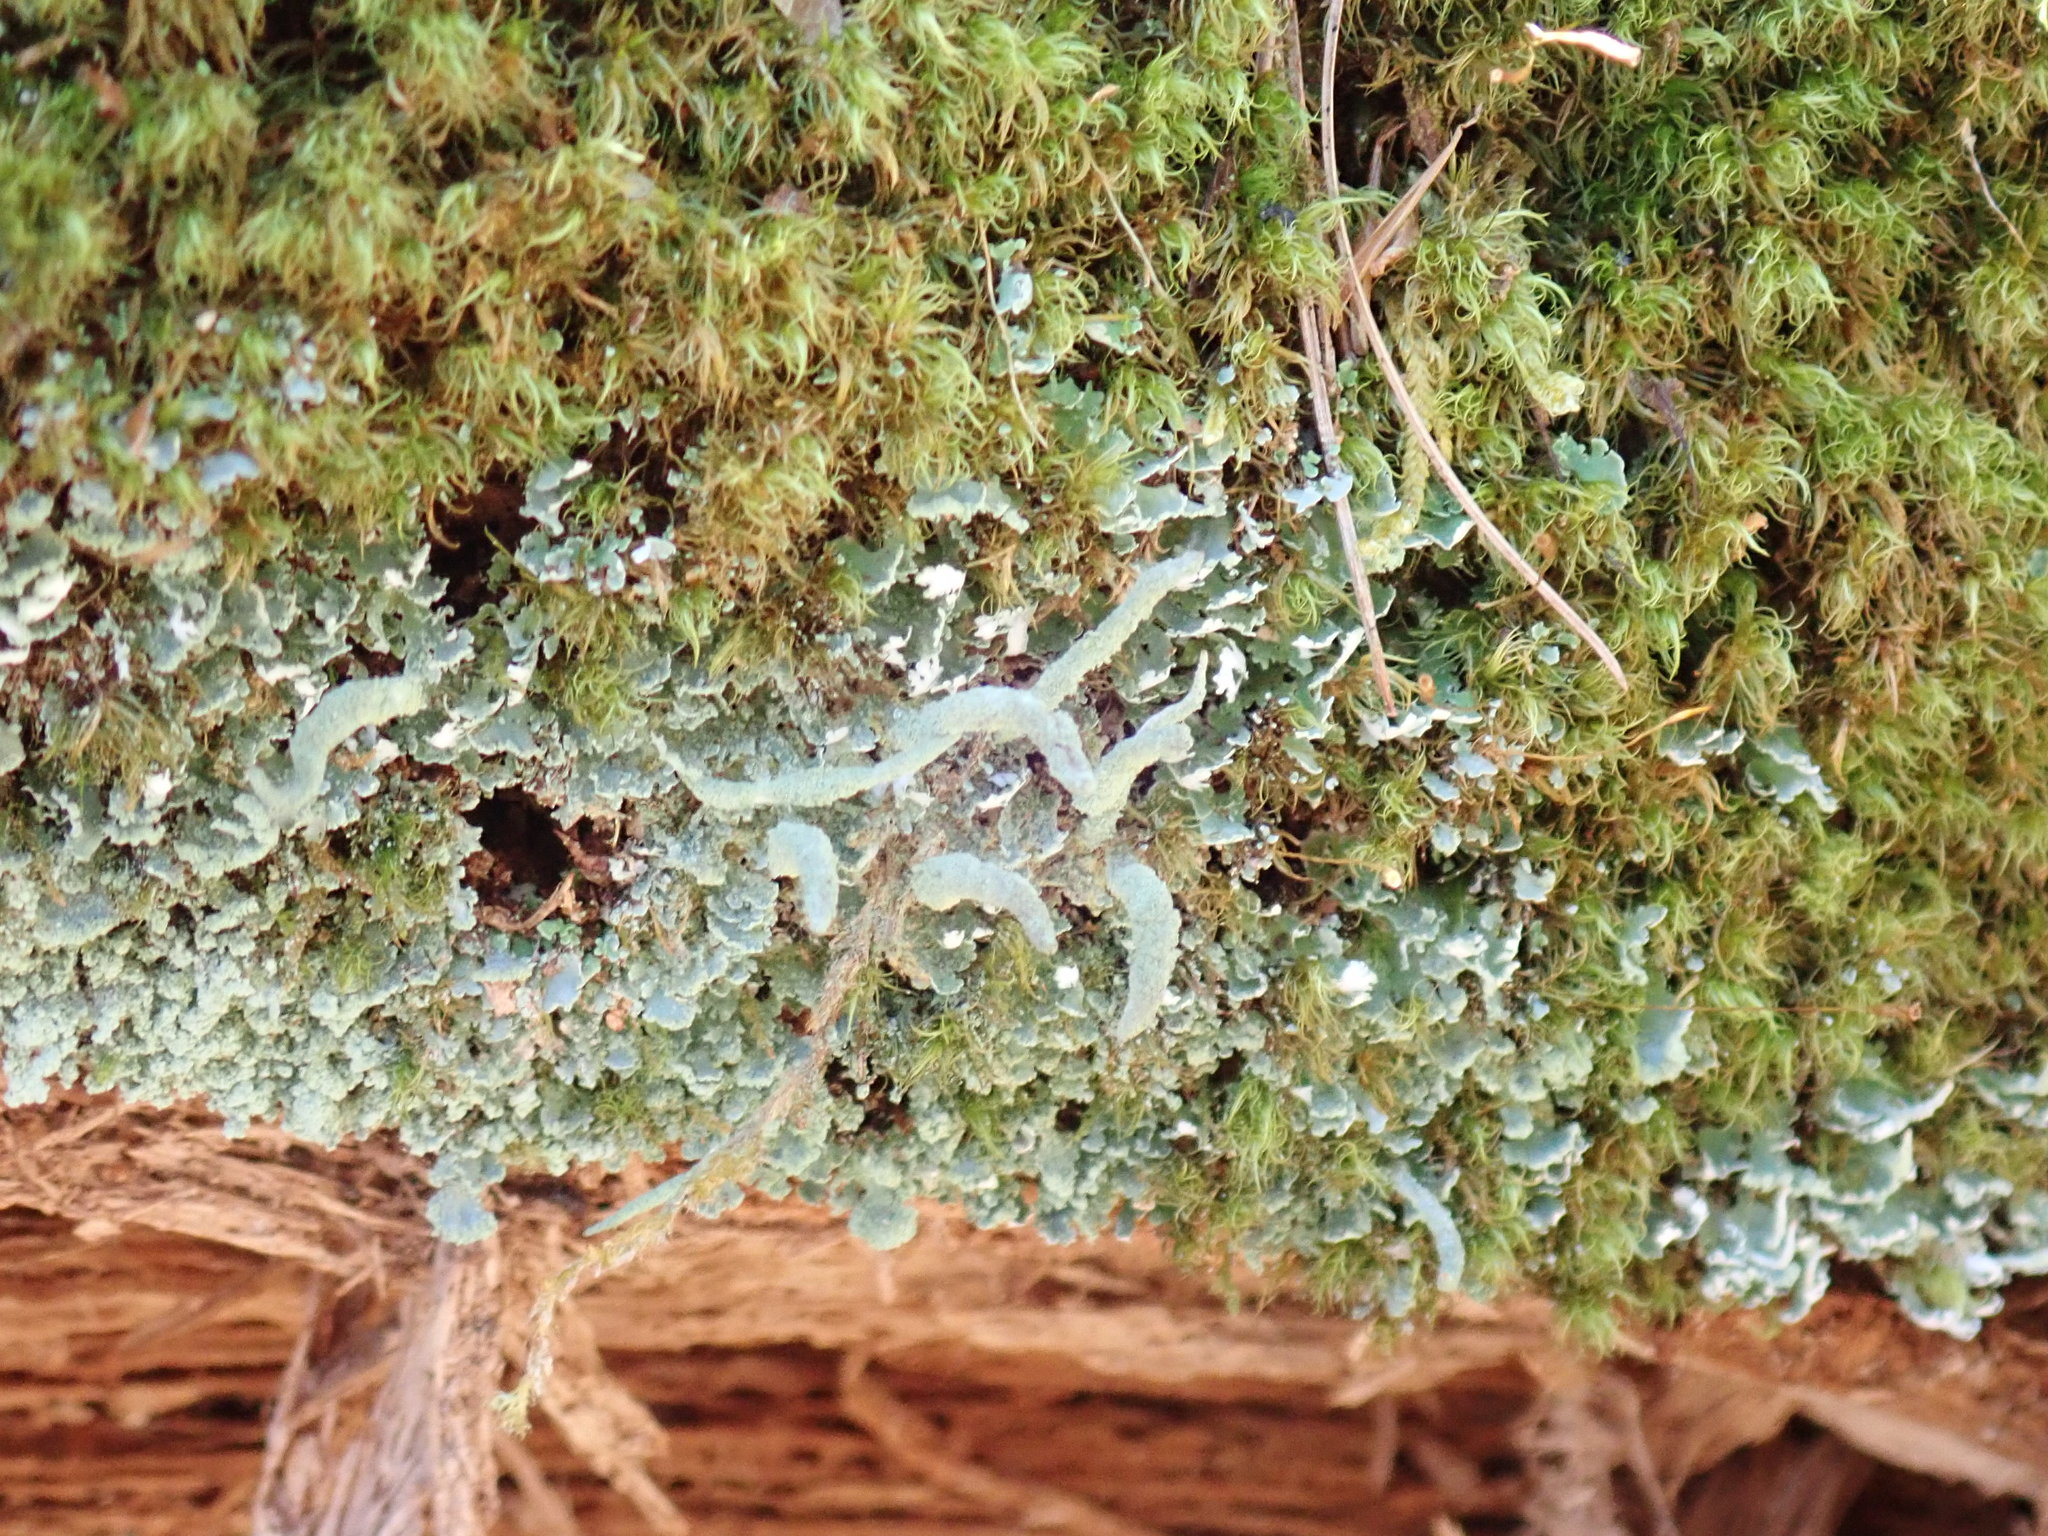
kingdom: Fungi
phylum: Ascomycota
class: Lecanoromycetes
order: Lecanorales
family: Cladoniaceae
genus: Cladonia
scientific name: Cladonia coniocraea
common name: Common powderhorn
